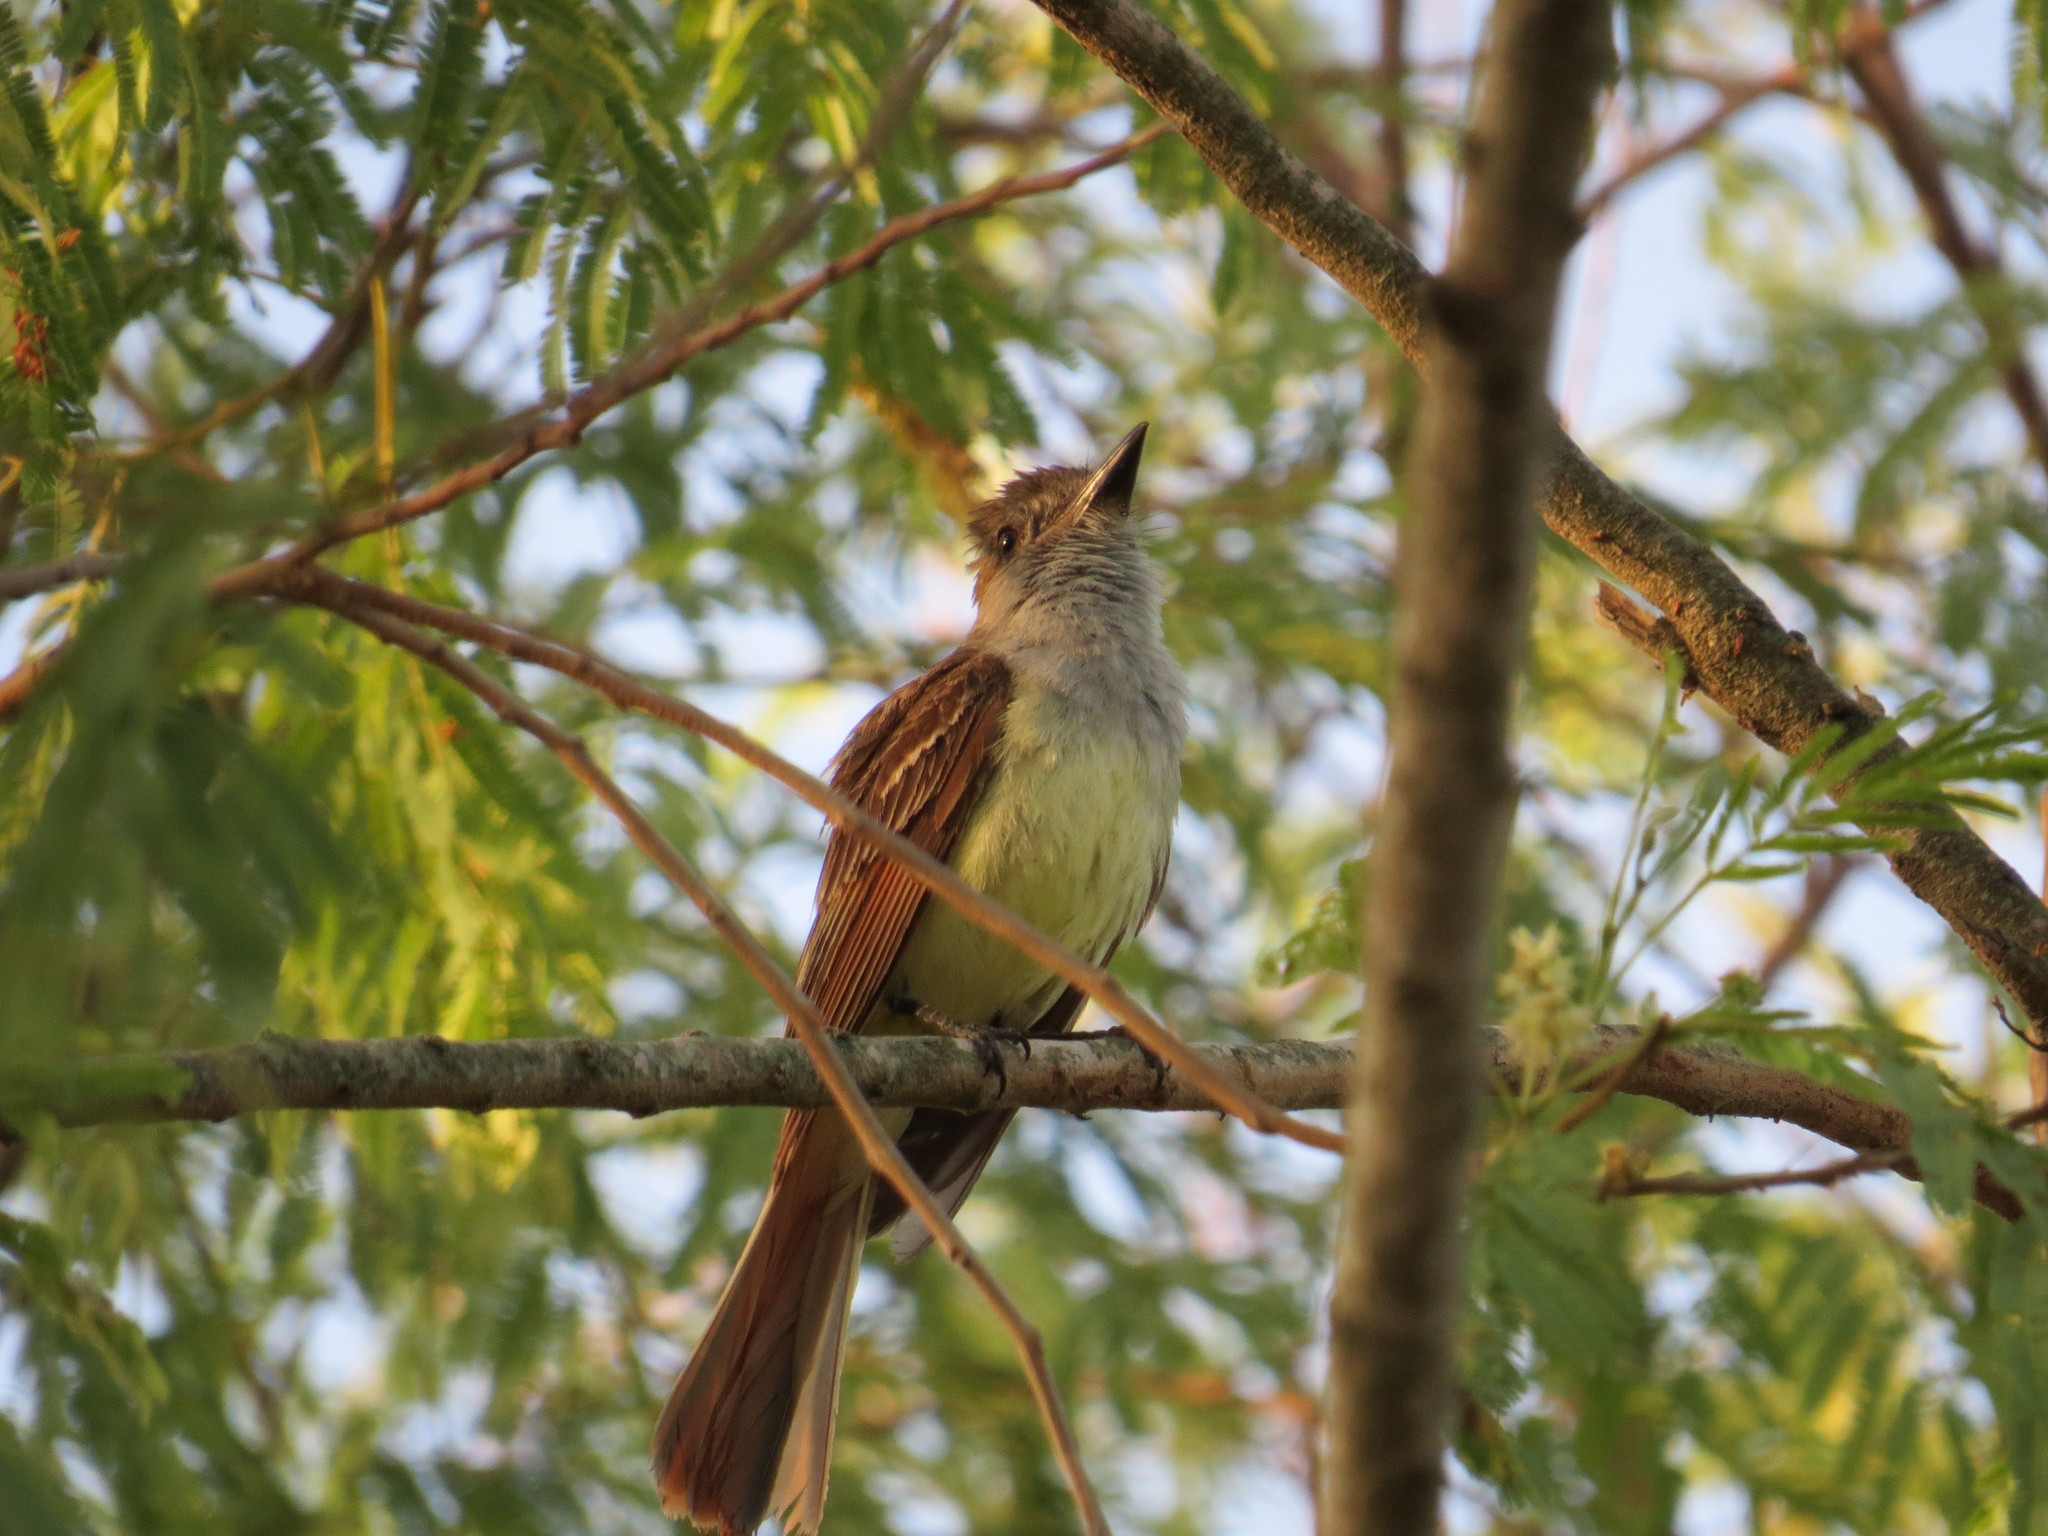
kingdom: Animalia
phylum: Chordata
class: Aves
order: Passeriformes
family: Tyrannidae
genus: Myiarchus
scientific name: Myiarchus tyrannulus
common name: Brown-crested flycatcher
